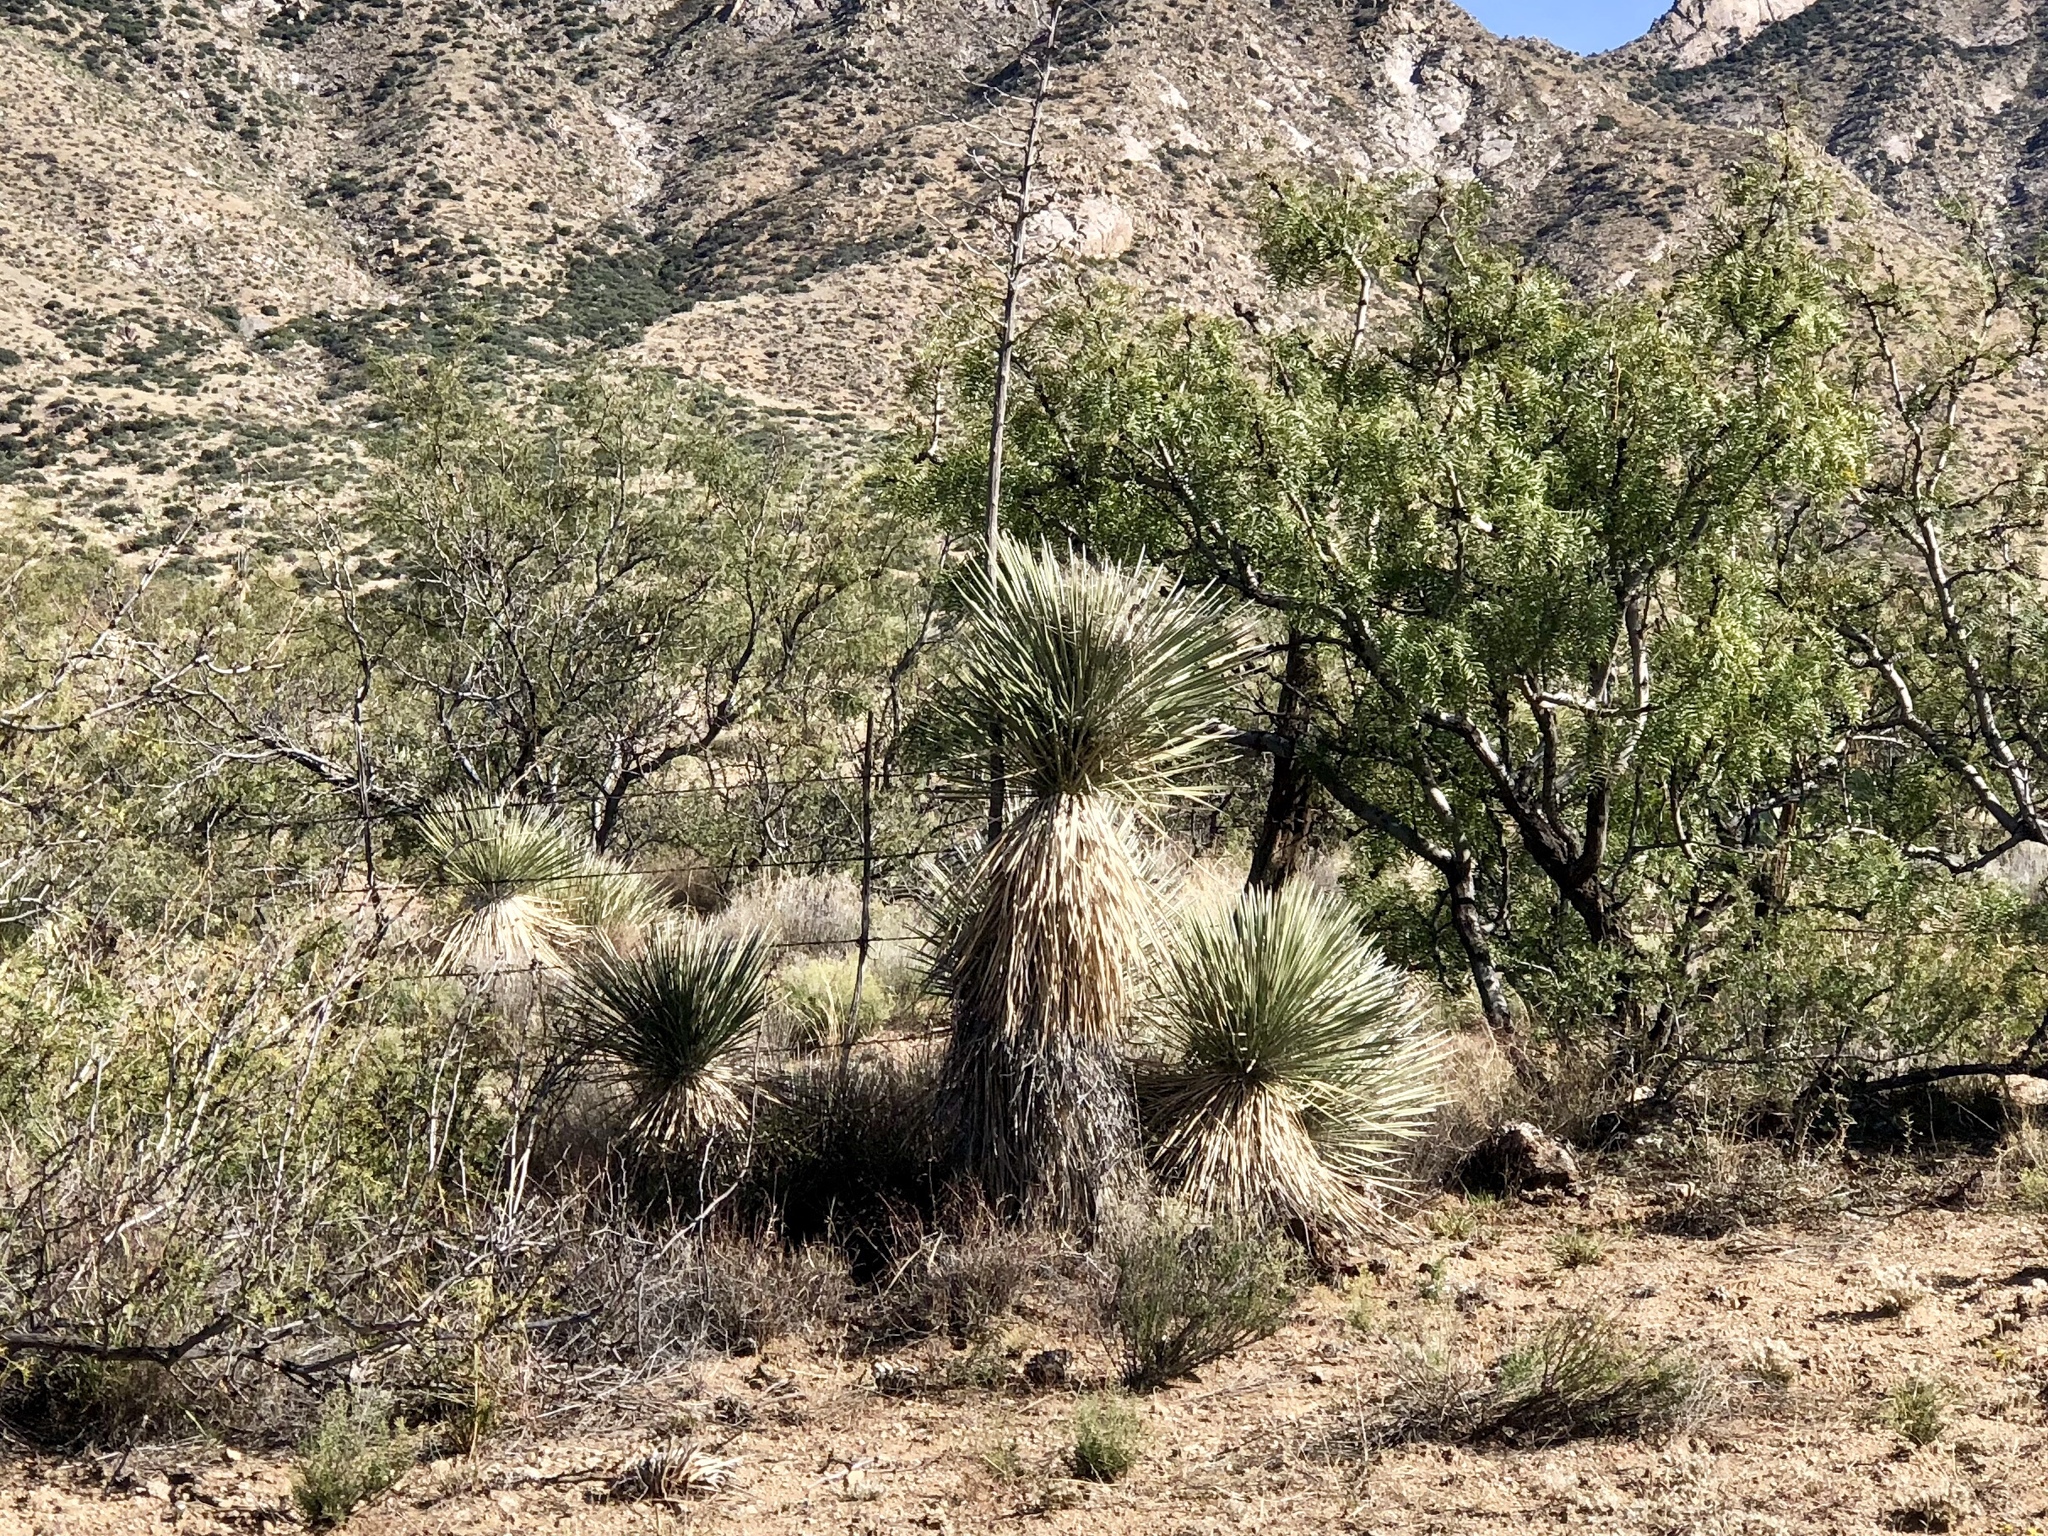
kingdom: Plantae
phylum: Tracheophyta
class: Liliopsida
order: Asparagales
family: Asparagaceae
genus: Yucca
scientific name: Yucca elata
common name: Palmella
